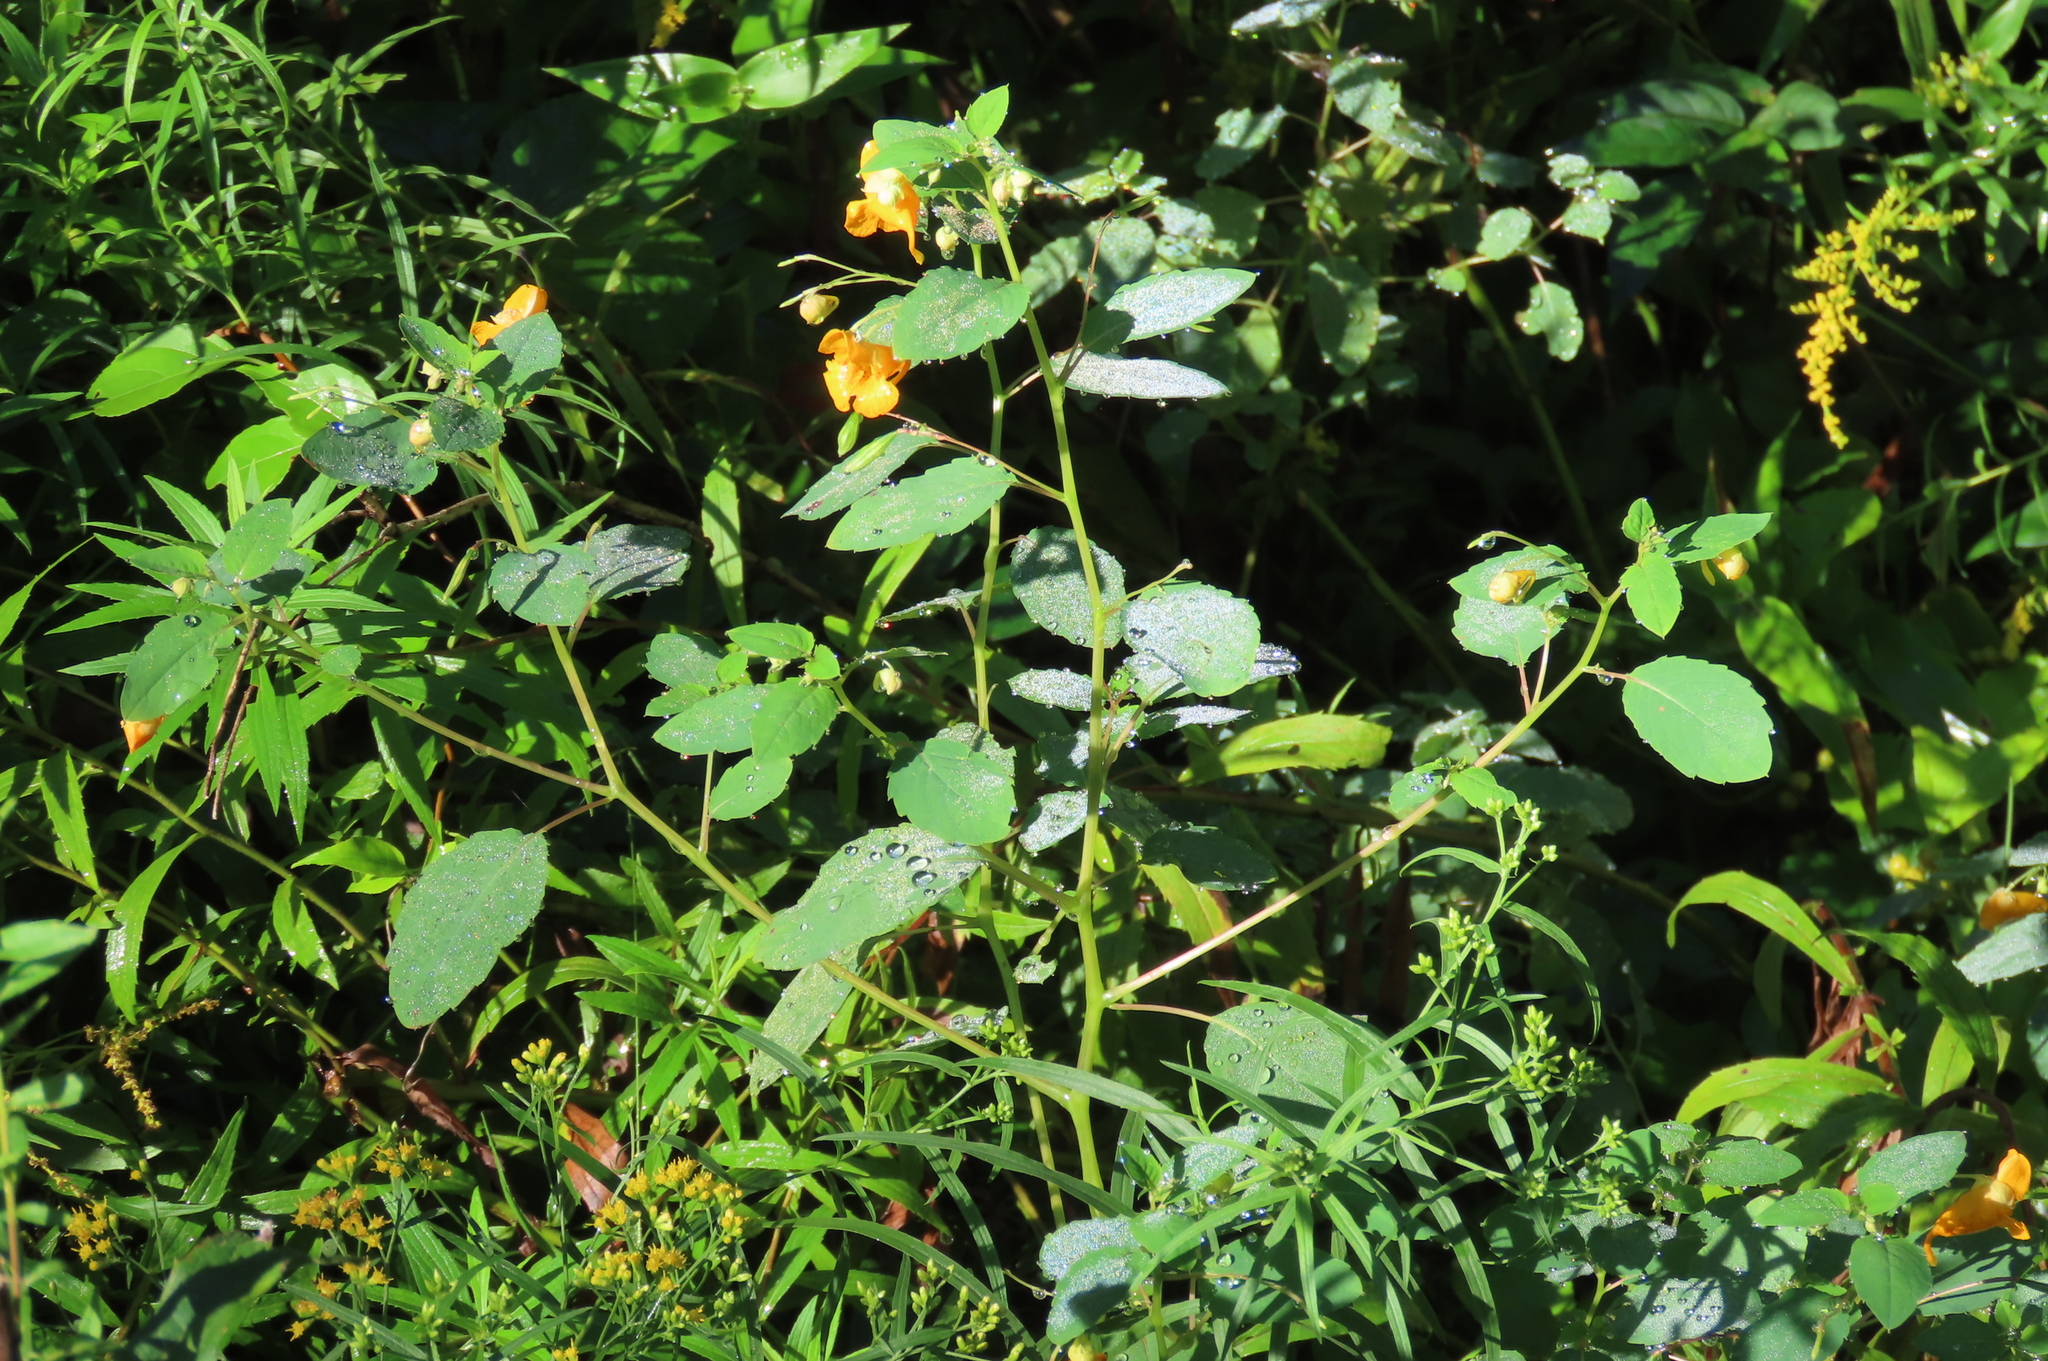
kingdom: Plantae
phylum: Tracheophyta
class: Magnoliopsida
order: Ericales
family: Balsaminaceae
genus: Impatiens
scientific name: Impatiens capensis
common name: Orange balsam
